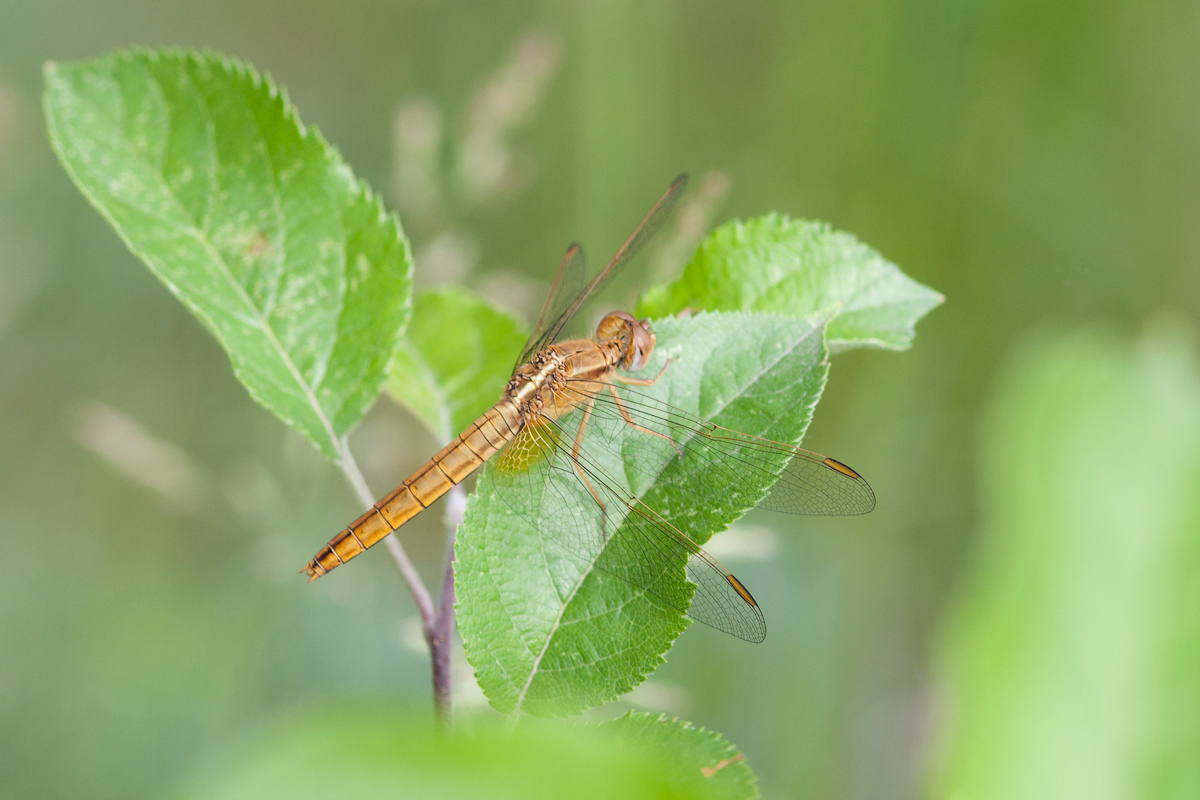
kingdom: Animalia
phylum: Arthropoda
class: Insecta
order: Odonata
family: Libellulidae
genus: Crocothemis
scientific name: Crocothemis erythraea
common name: Scarlet dragonfly
